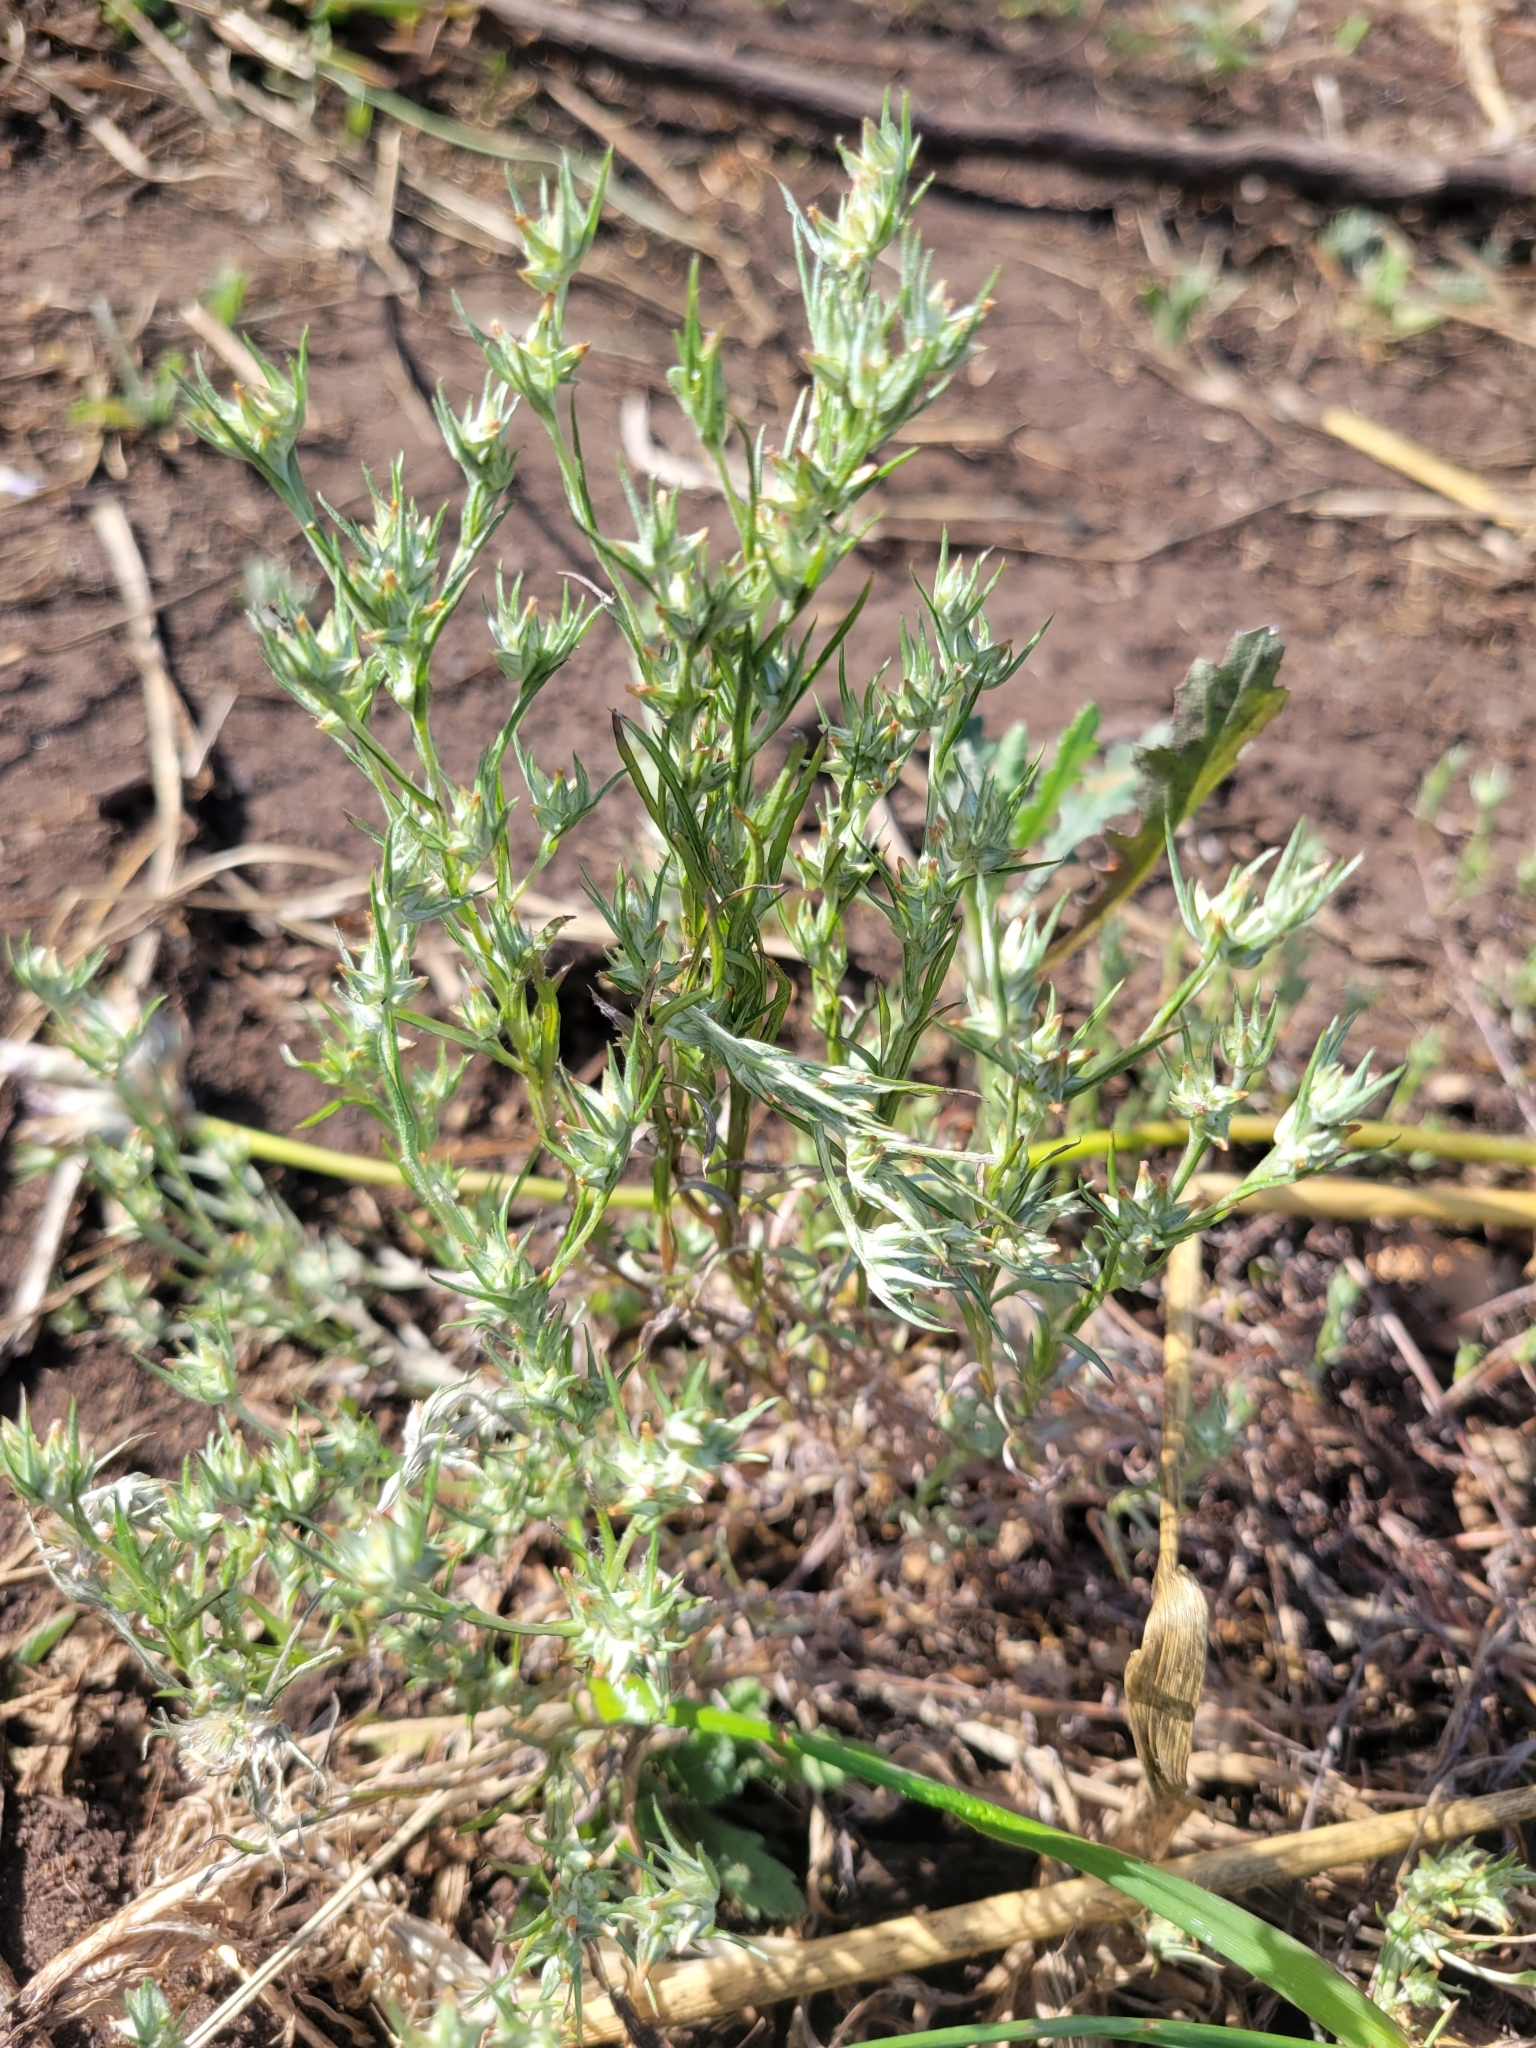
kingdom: Plantae
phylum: Tracheophyta
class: Magnoliopsida
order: Asterales
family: Asteraceae
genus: Logfia
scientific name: Logfia gallica
